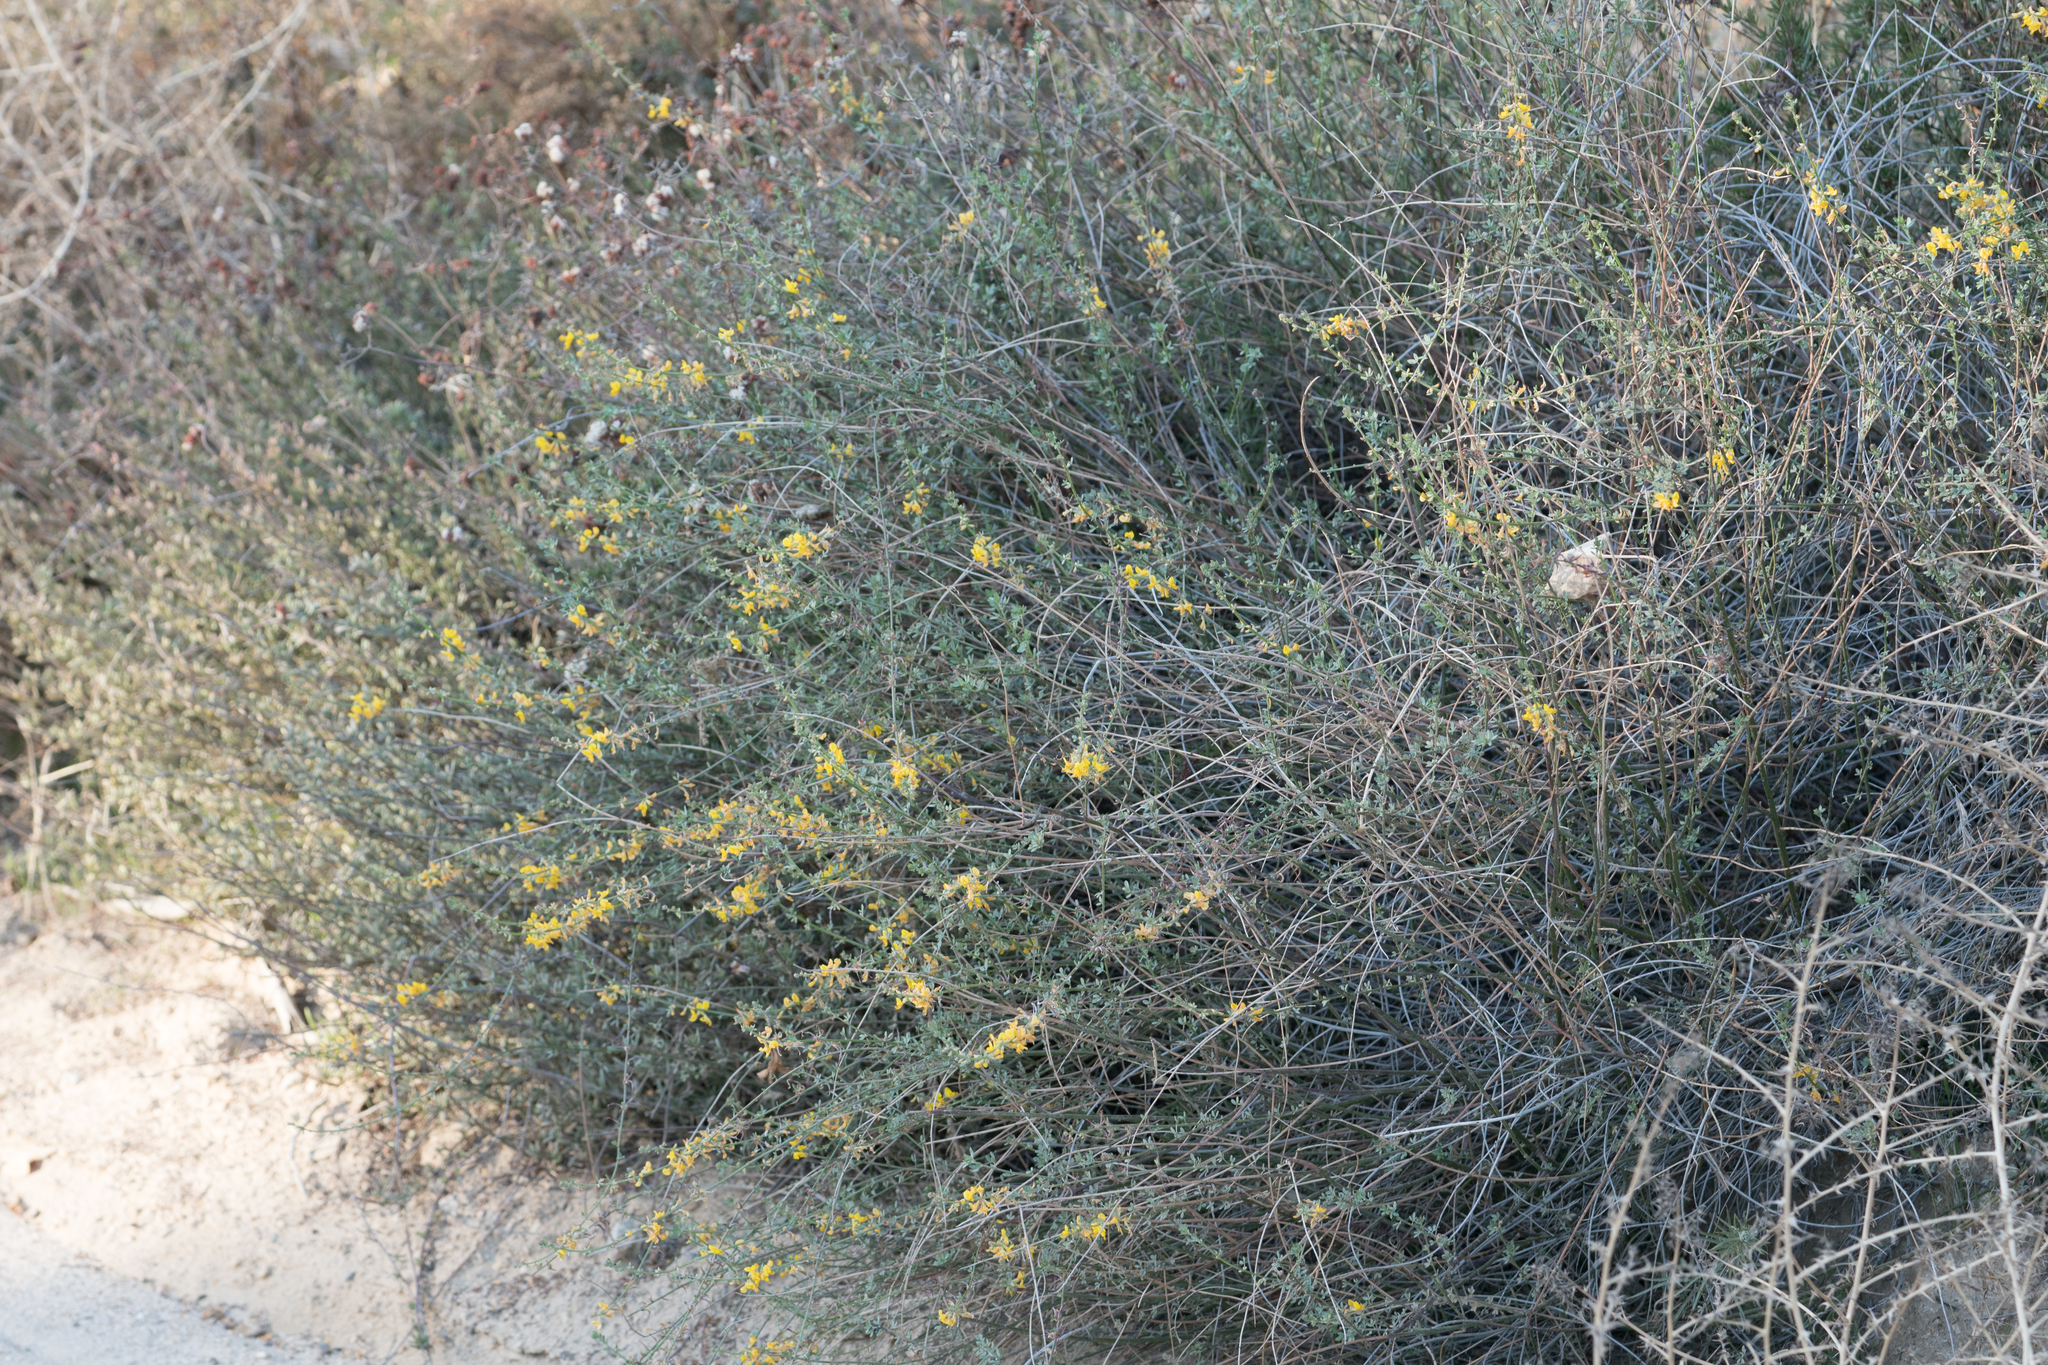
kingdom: Plantae
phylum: Tracheophyta
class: Magnoliopsida
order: Fabales
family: Fabaceae
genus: Acmispon
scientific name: Acmispon glaber
